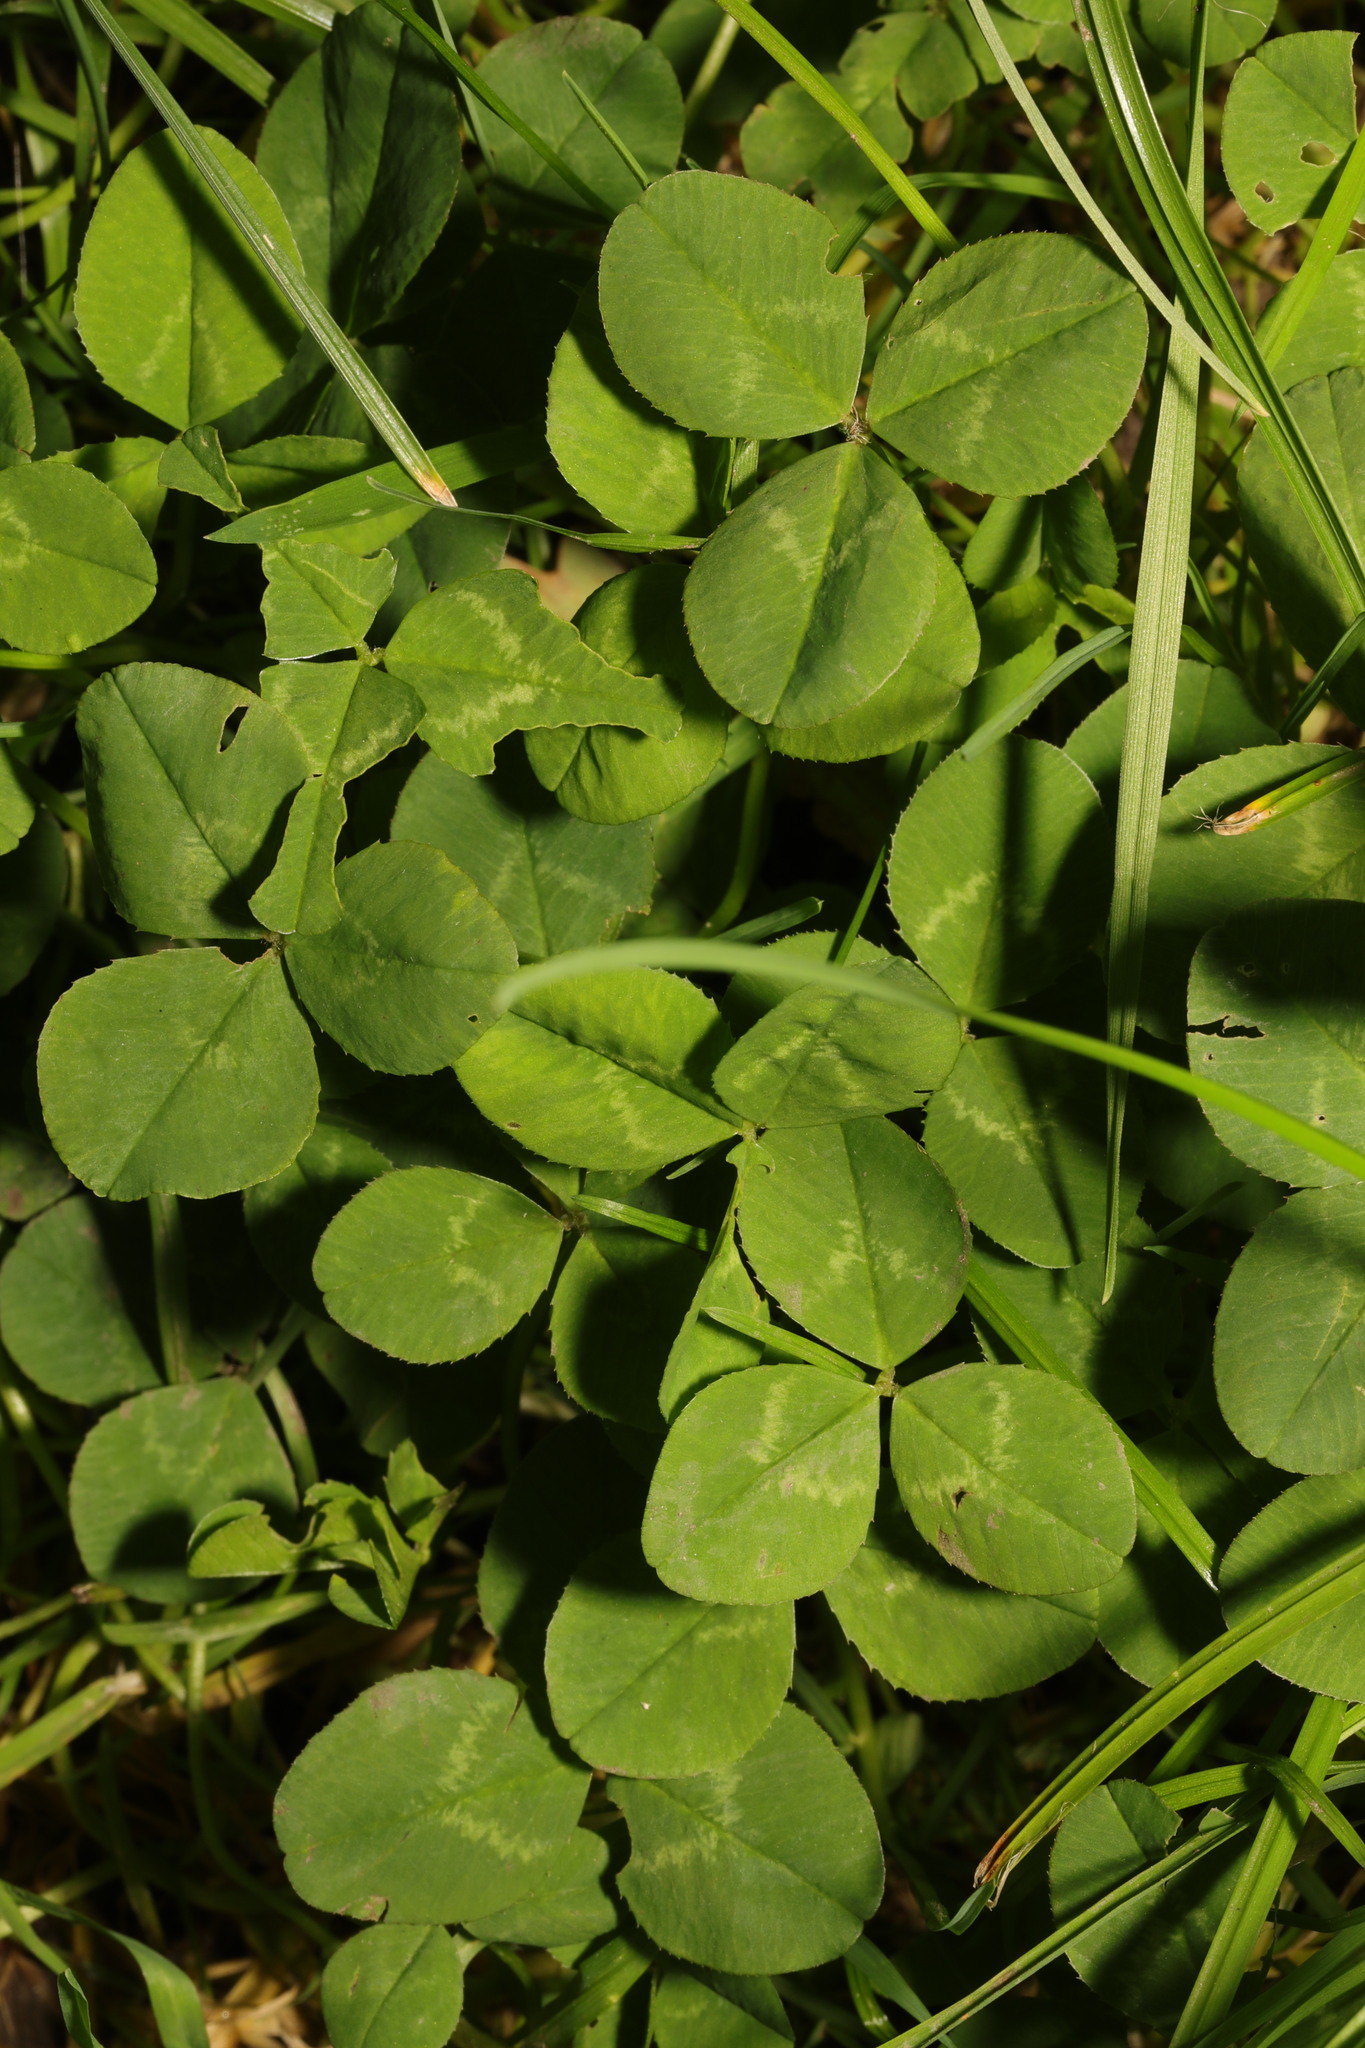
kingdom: Plantae
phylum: Tracheophyta
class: Magnoliopsida
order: Fabales
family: Fabaceae
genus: Trifolium
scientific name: Trifolium repens
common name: White clover
